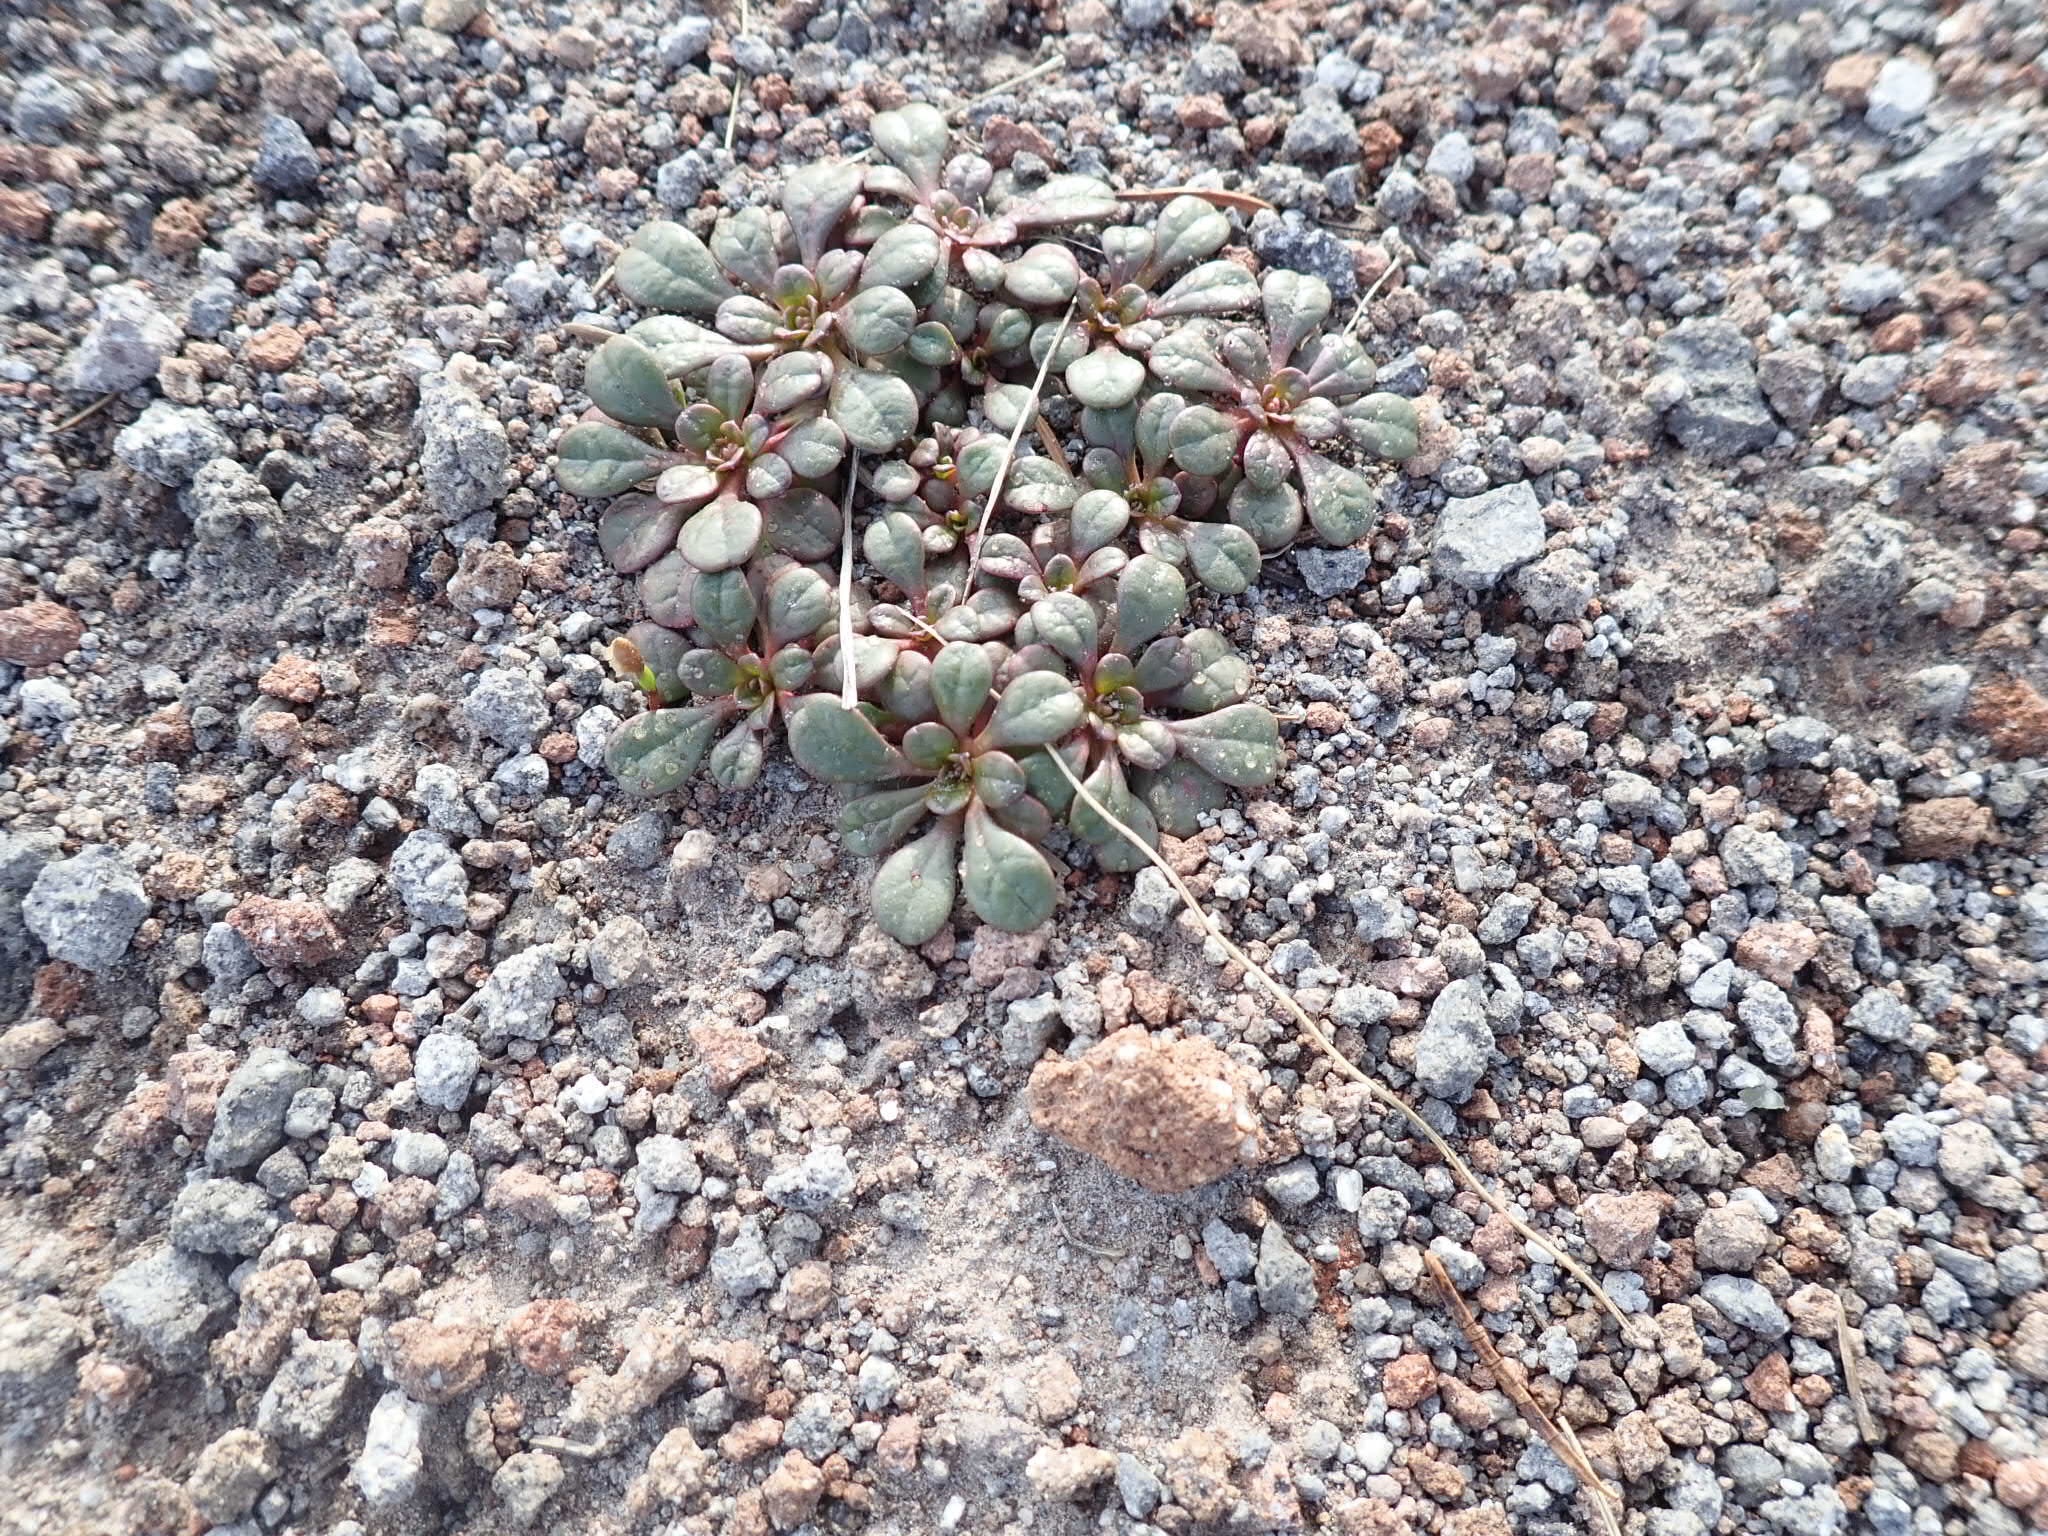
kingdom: Plantae
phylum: Tracheophyta
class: Magnoliopsida
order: Caryophyllales
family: Montiaceae
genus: Calyptridium
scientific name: Calyptridium umbellatum
